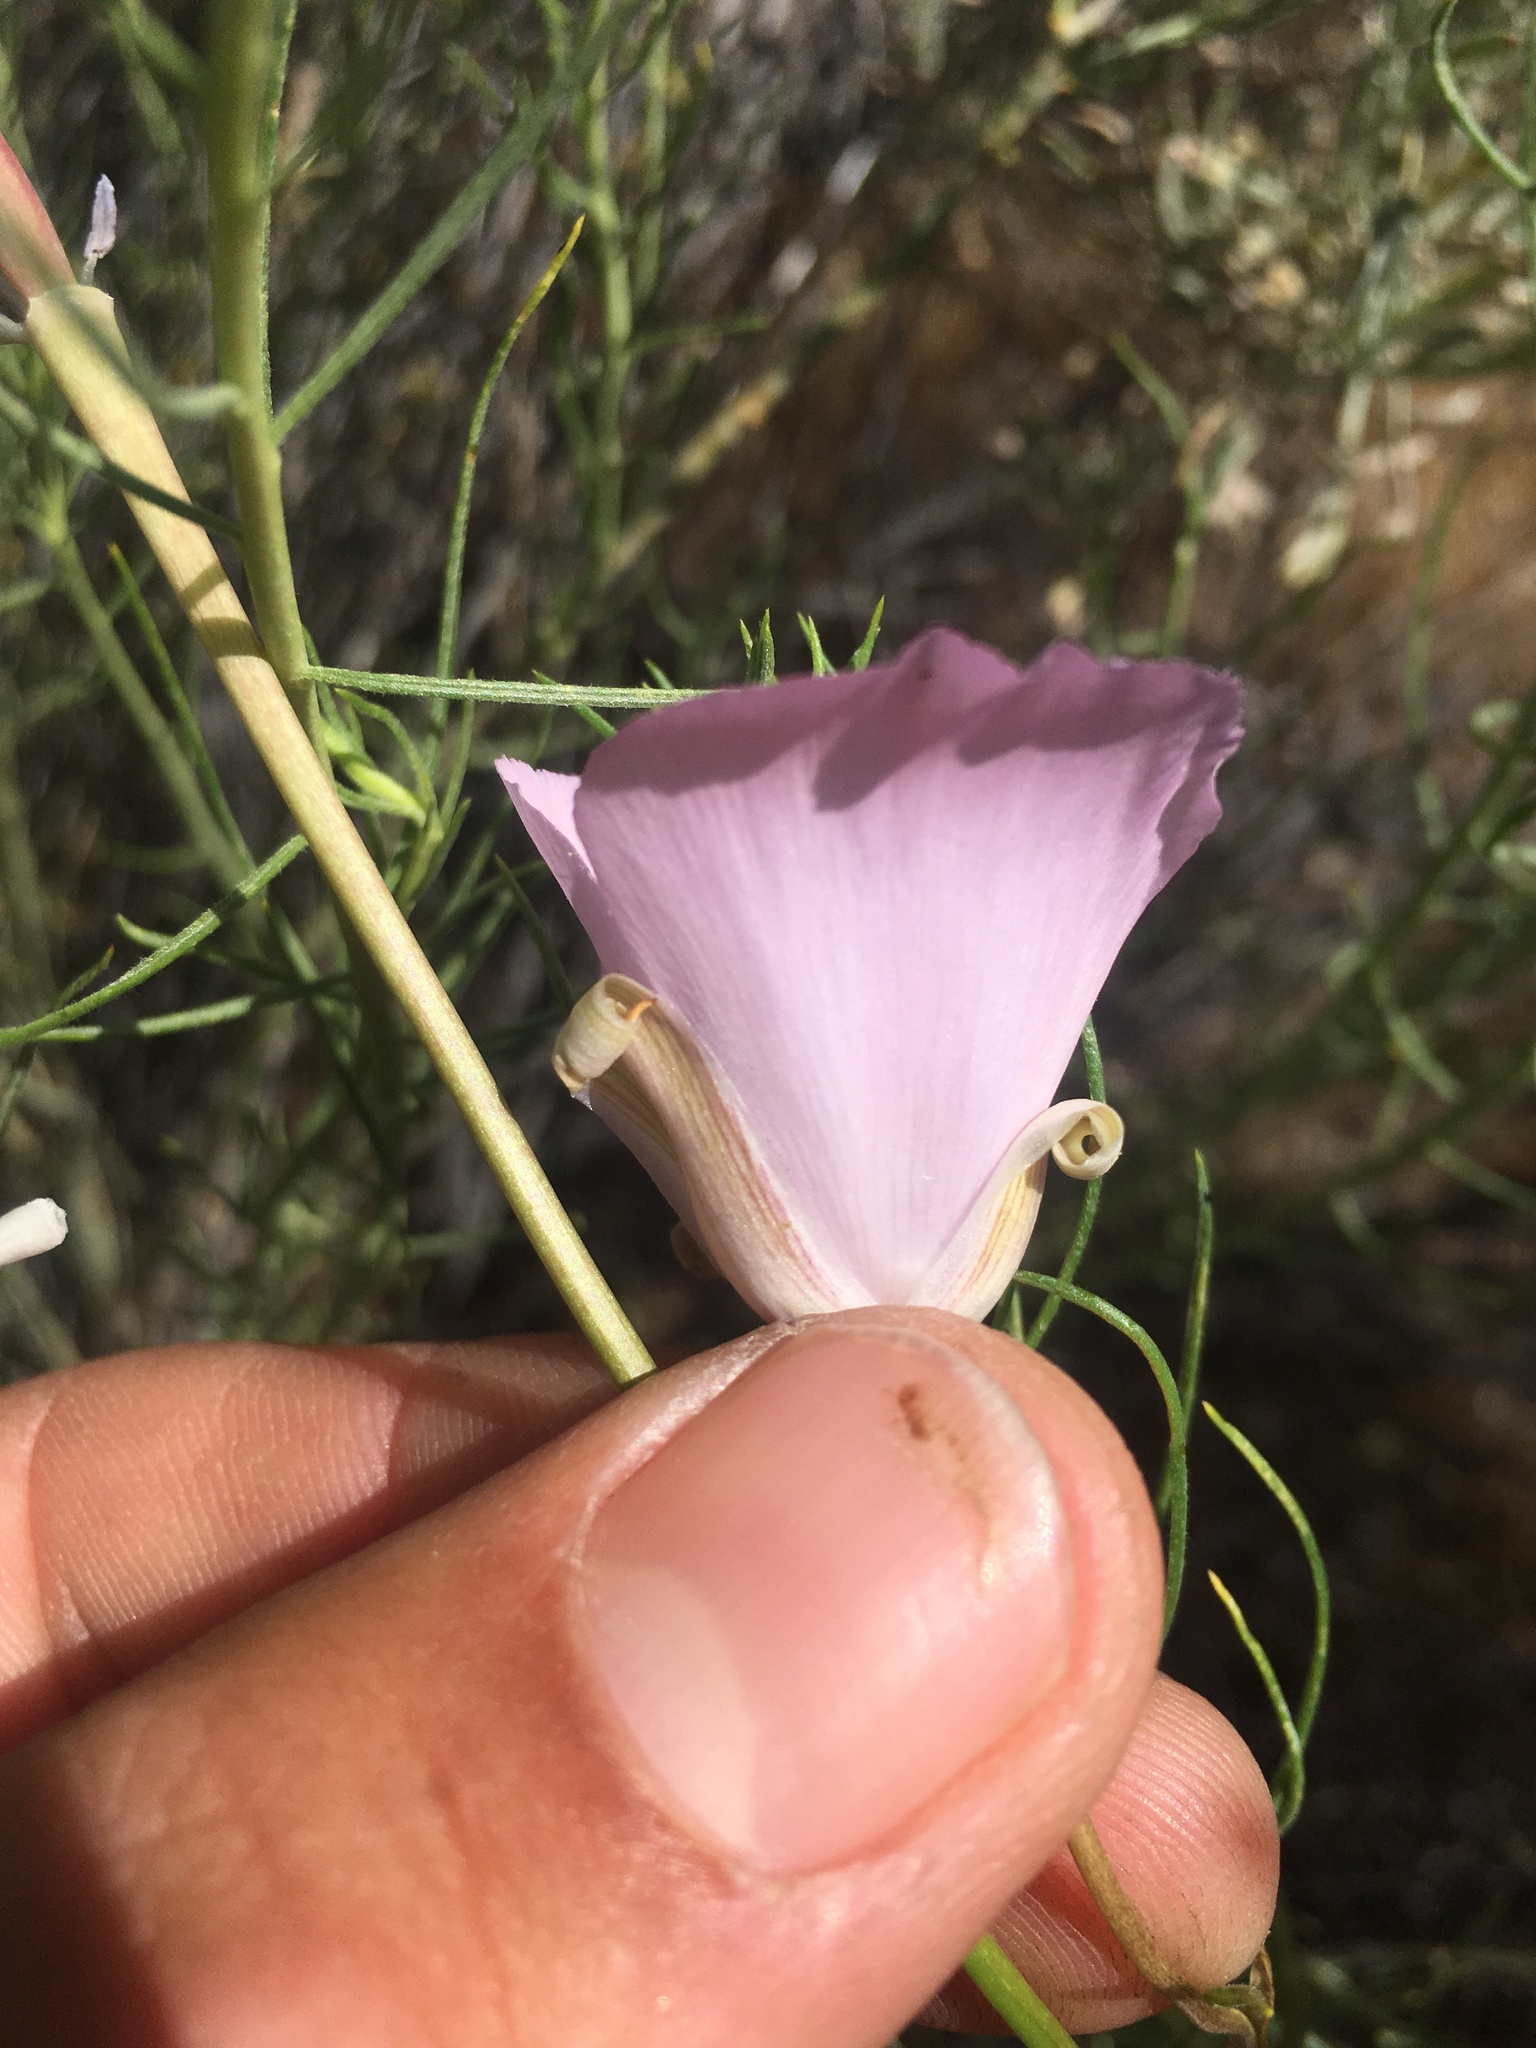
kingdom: Plantae
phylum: Tracheophyta
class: Liliopsida
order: Liliales
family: Liliaceae
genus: Calochortus
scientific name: Calochortus splendens
